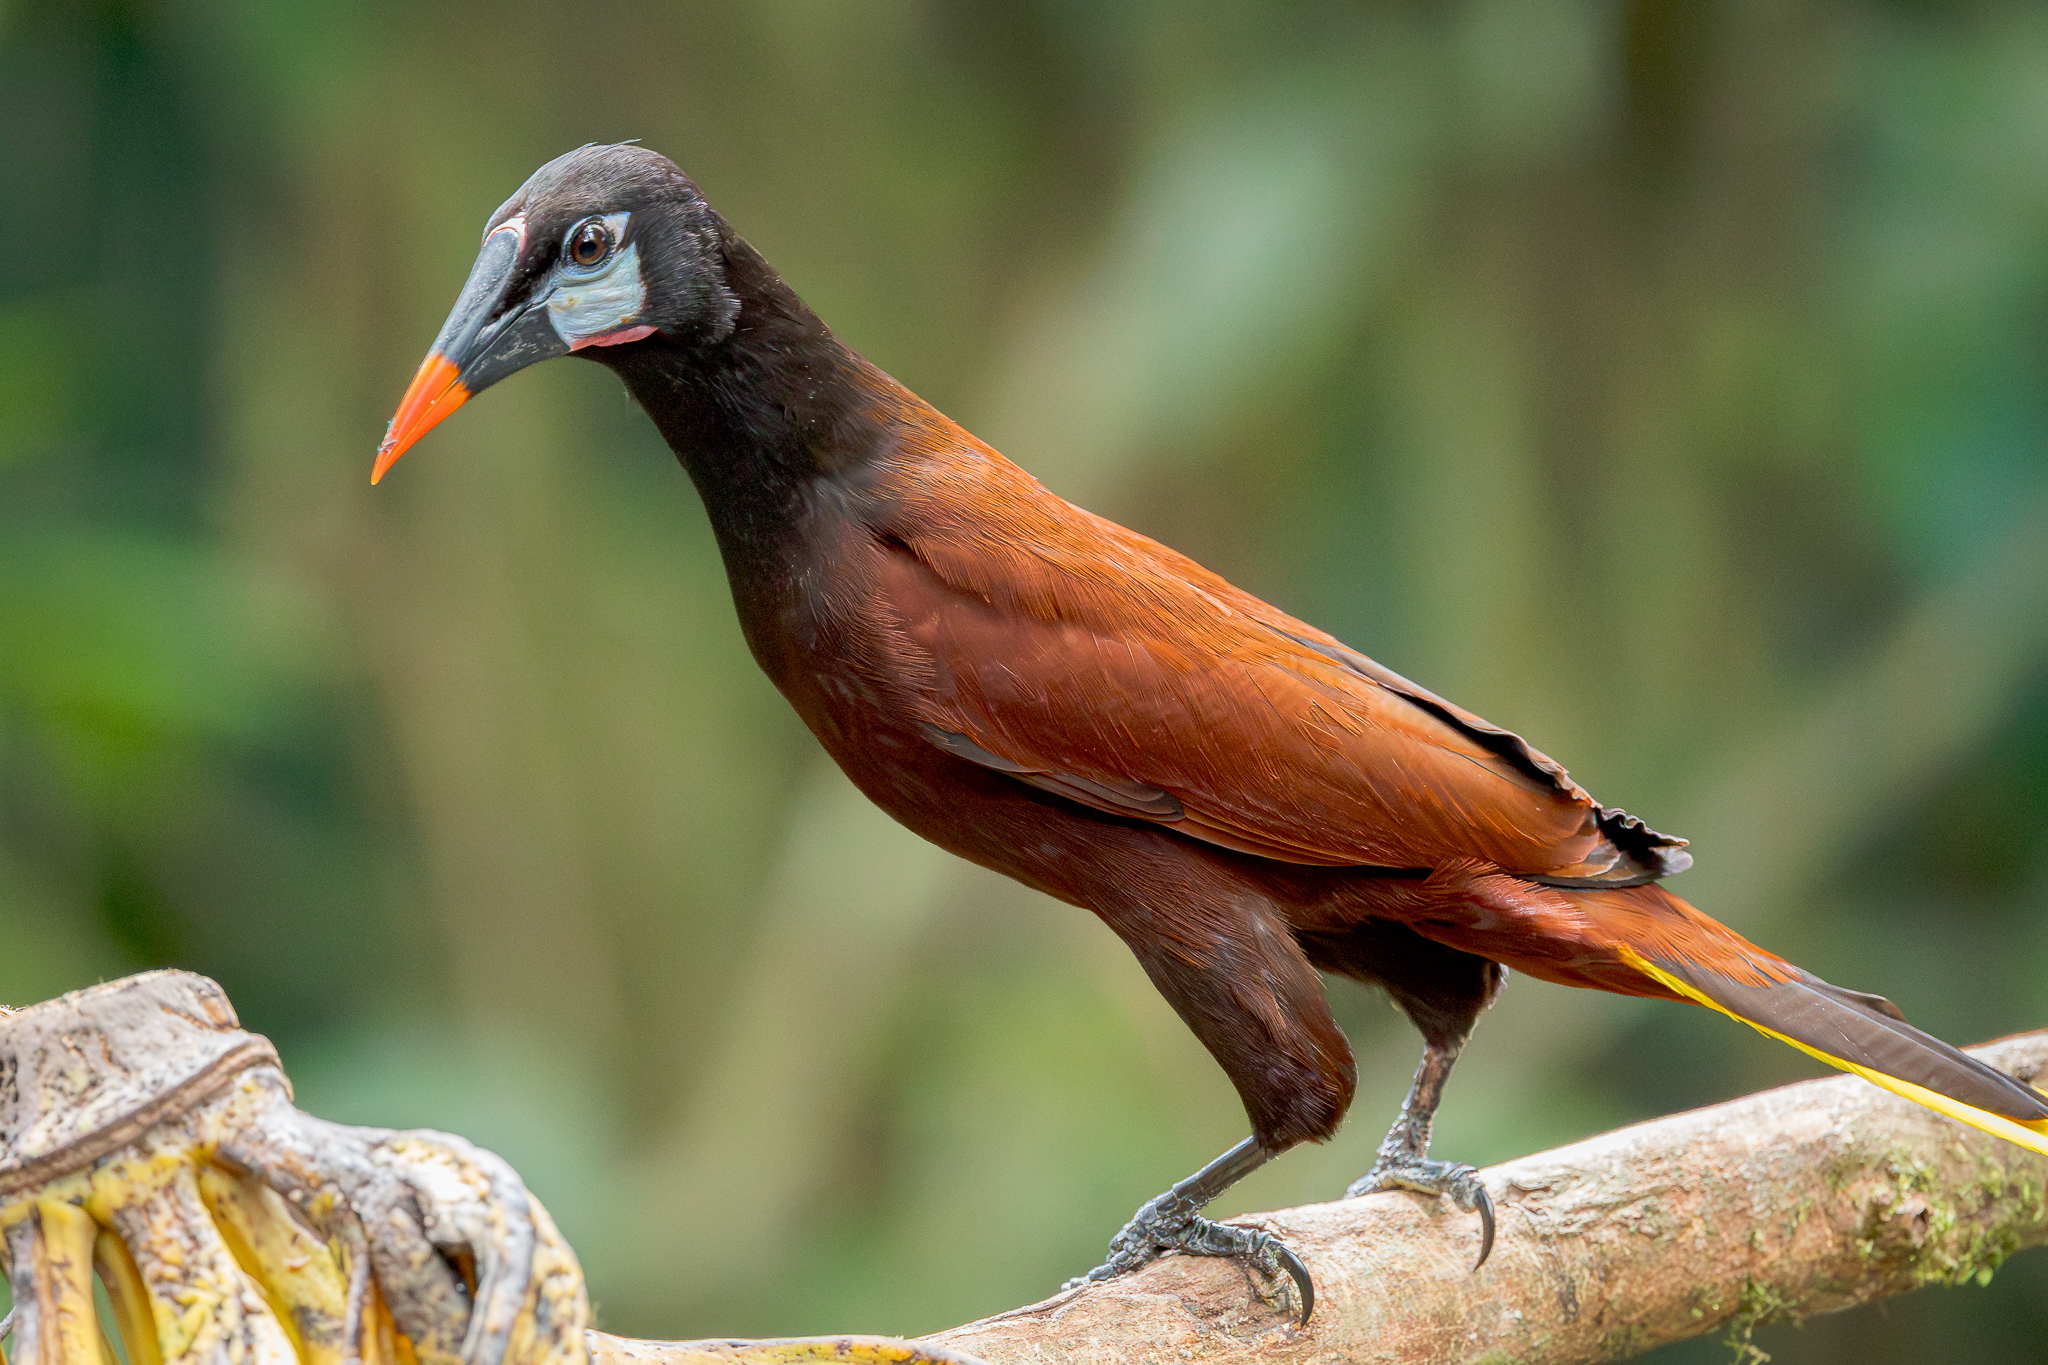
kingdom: Animalia
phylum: Chordata
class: Aves
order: Passeriformes
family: Icteridae
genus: Psarocolius
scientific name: Psarocolius montezuma
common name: Montezuma oropendola
